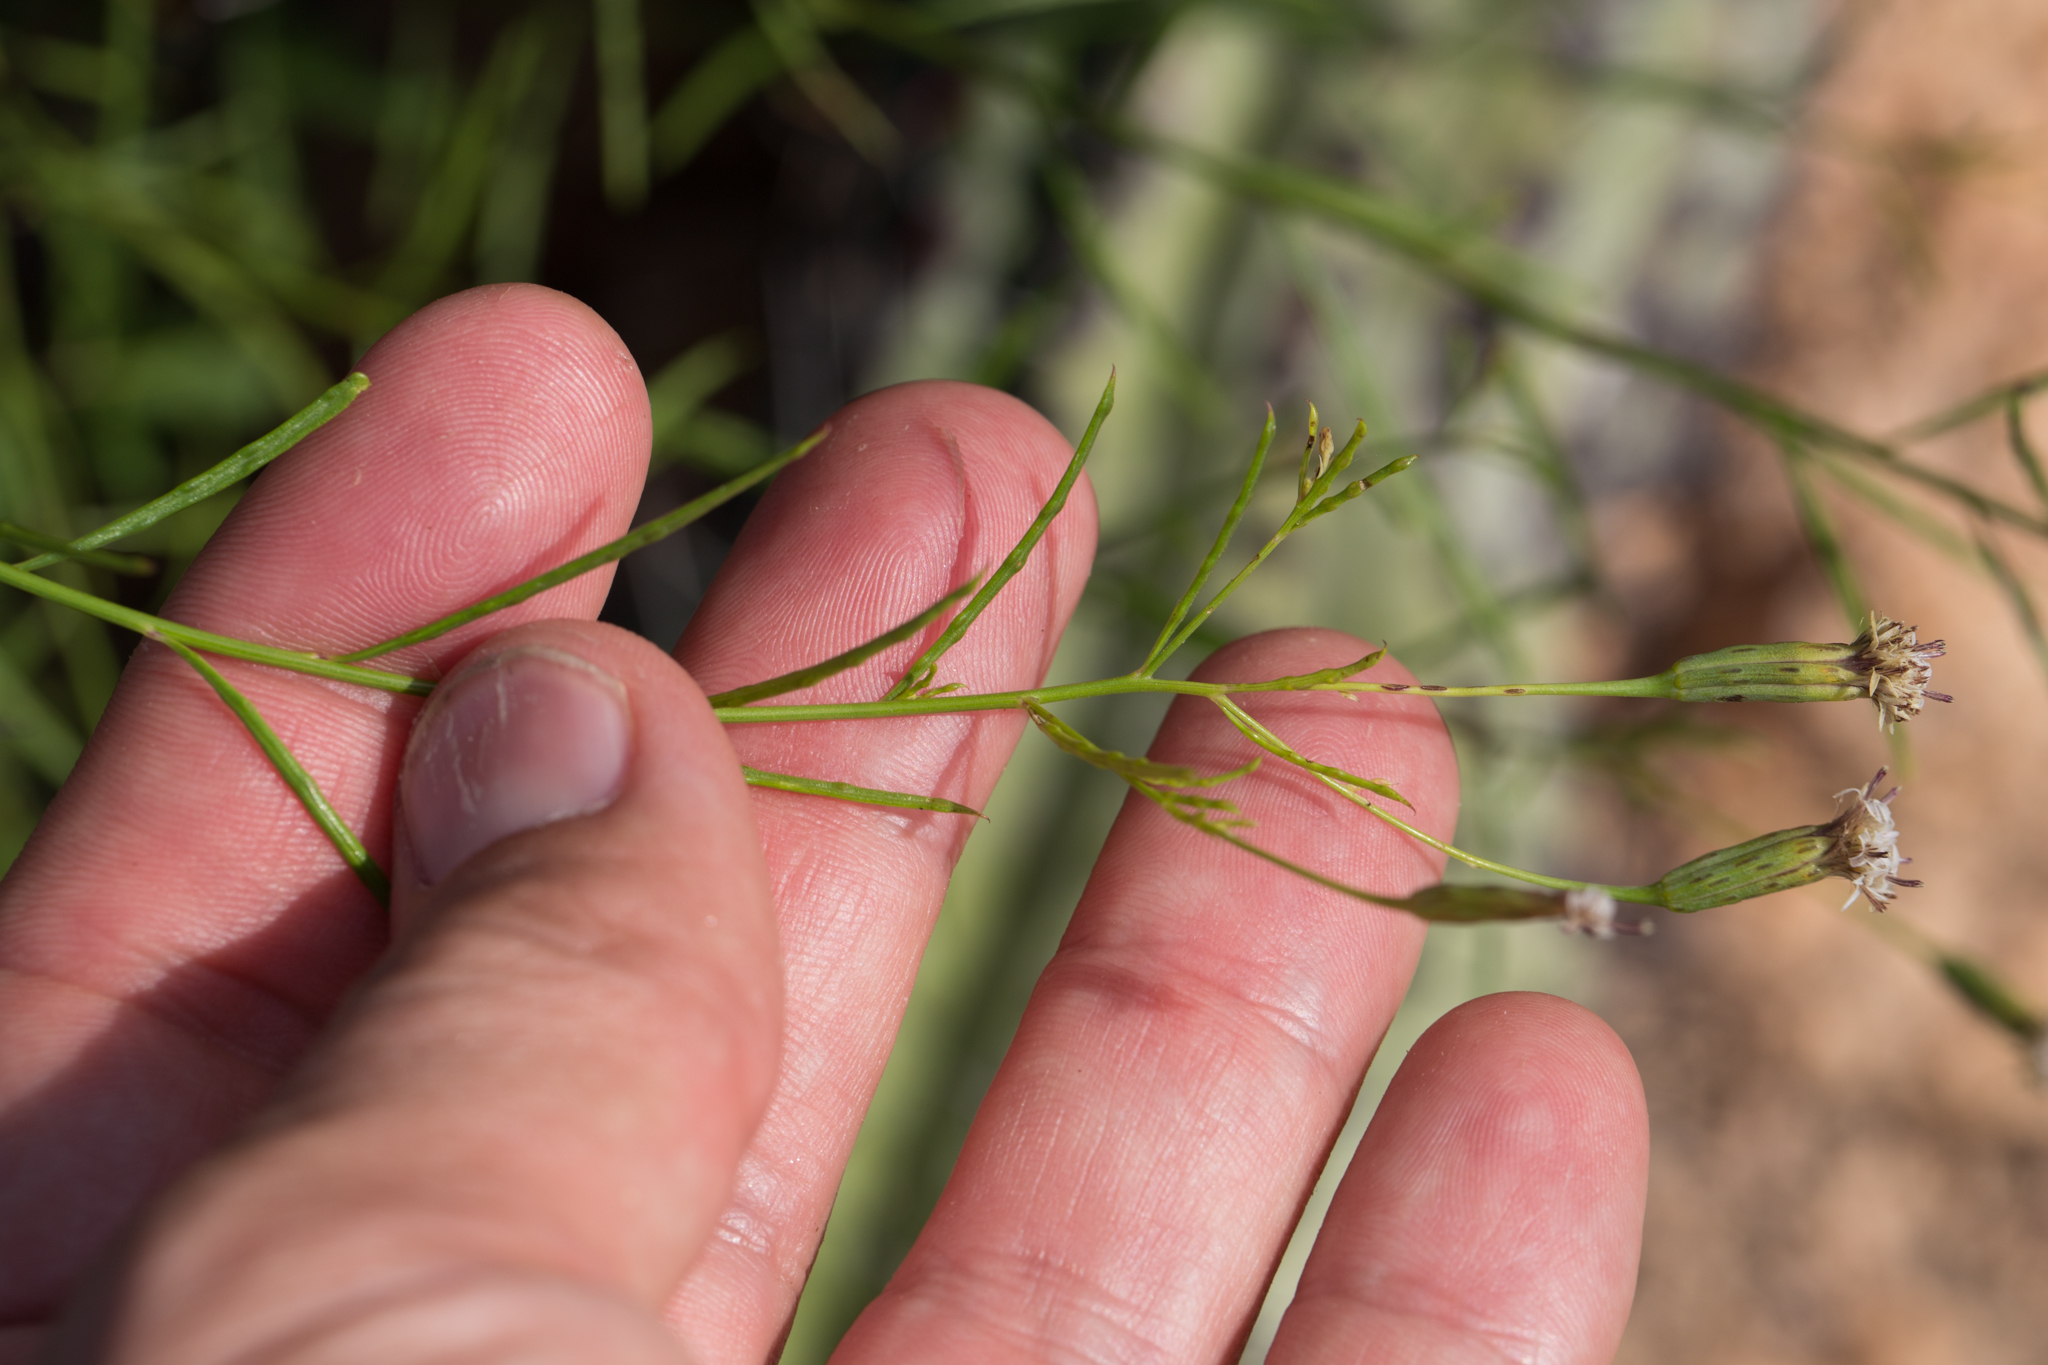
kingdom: Plantae
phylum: Tracheophyta
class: Magnoliopsida
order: Asterales
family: Asteraceae
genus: Porophyllum
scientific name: Porophyllum gracile
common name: Odora
